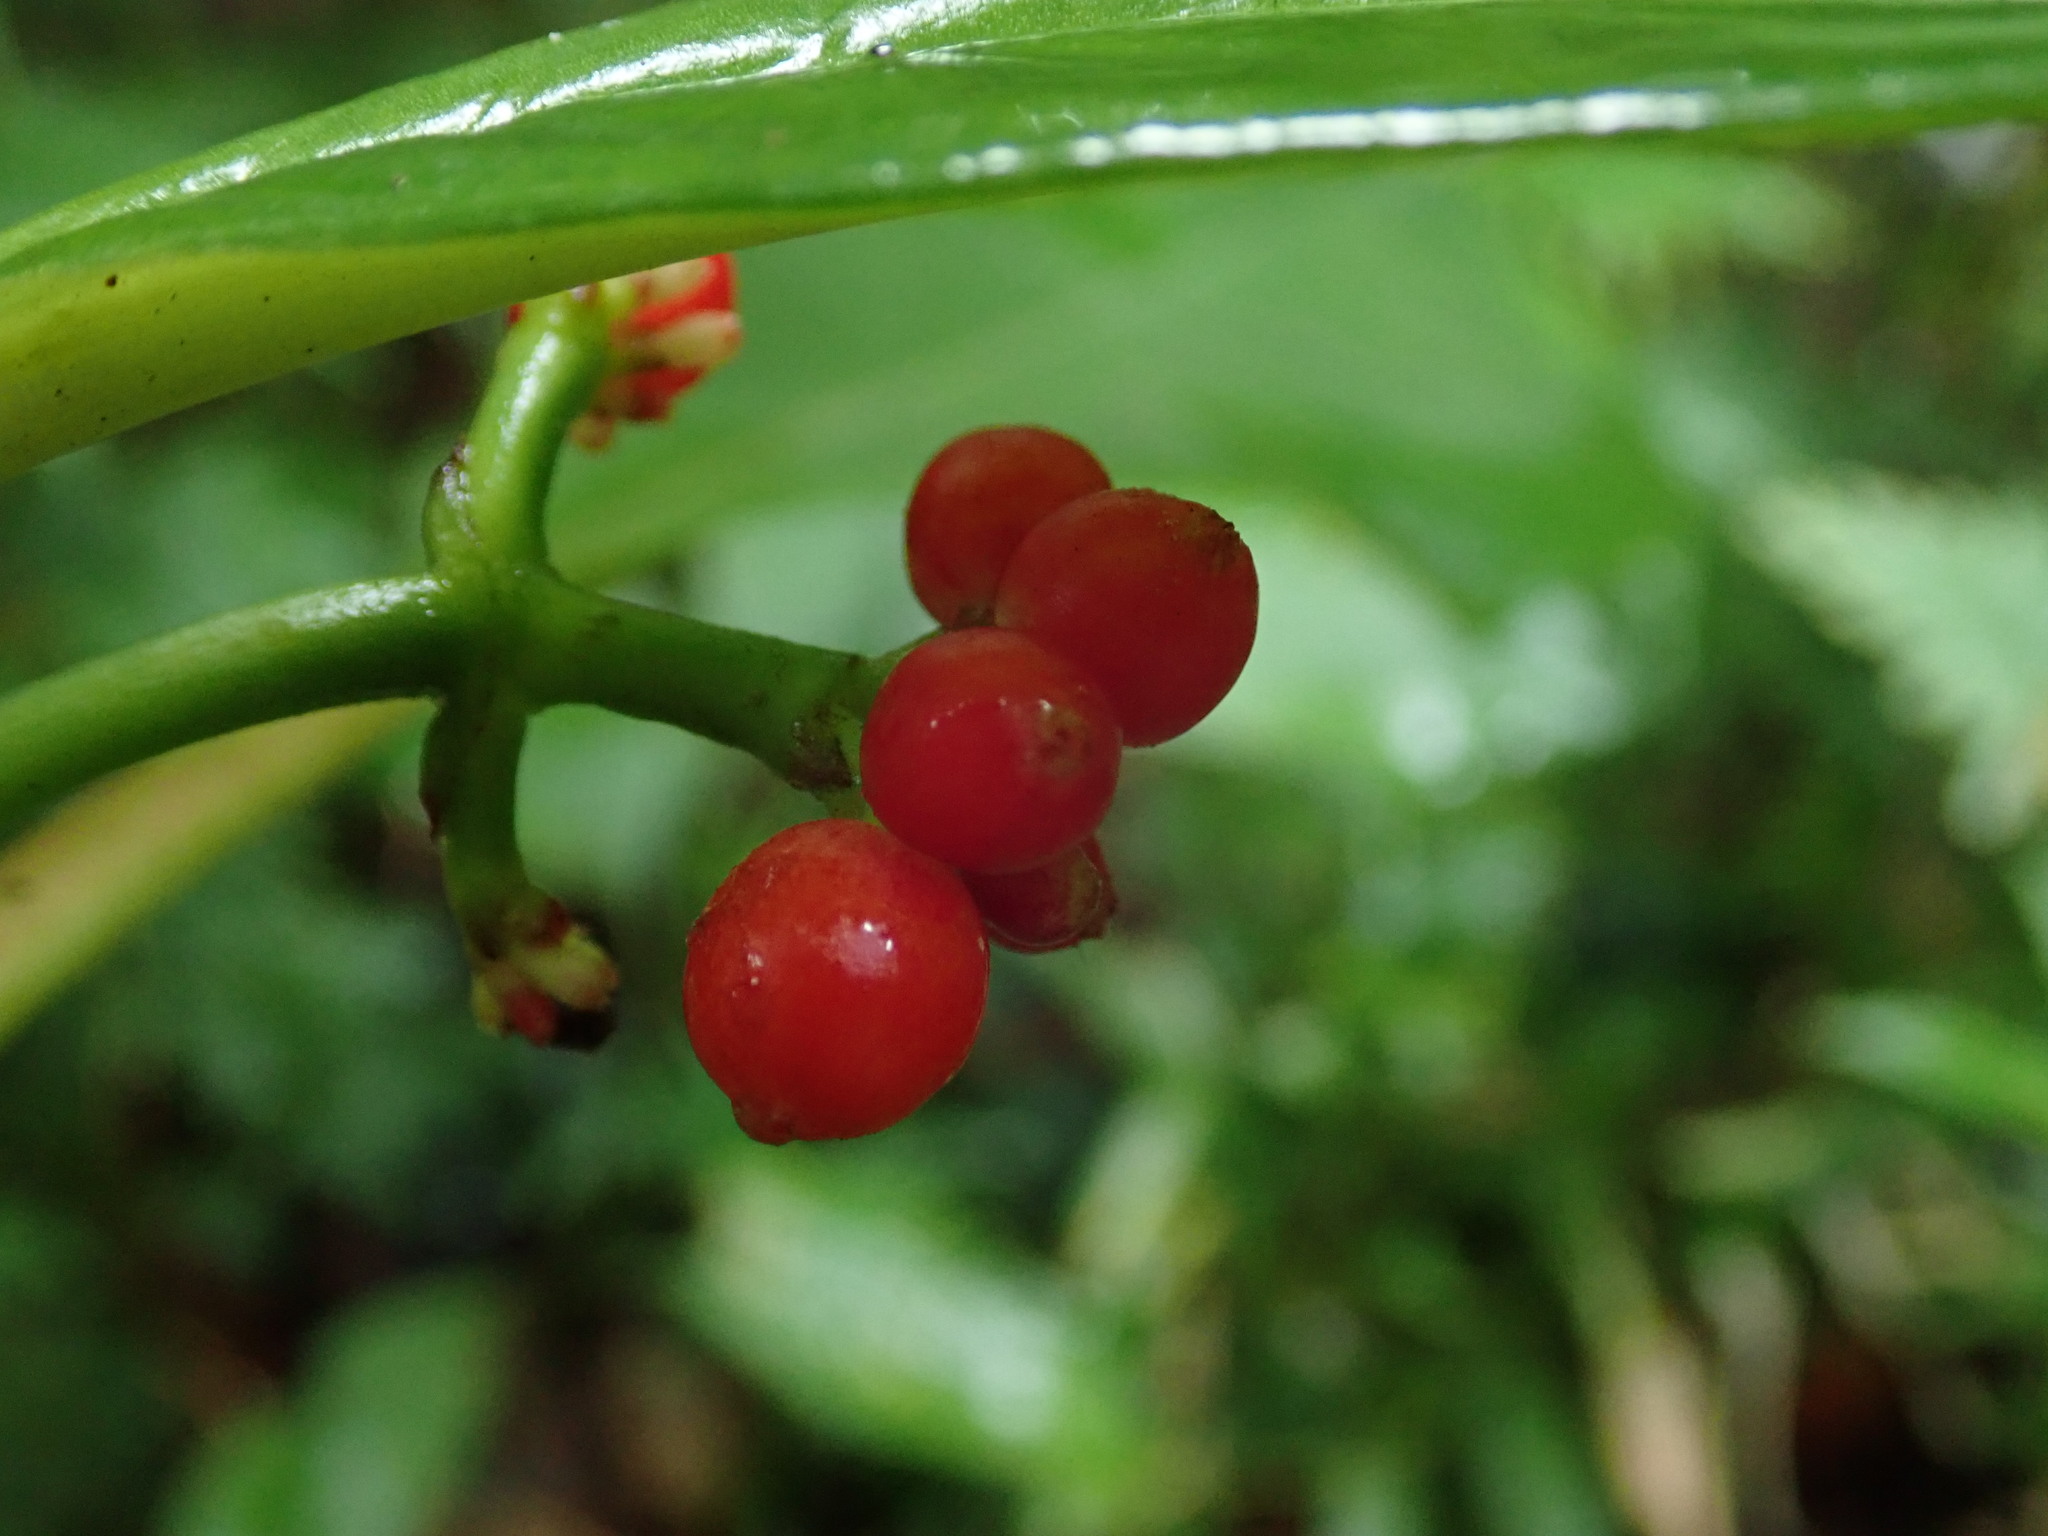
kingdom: Plantae
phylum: Tracheophyta
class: Magnoliopsida
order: Gentianales
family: Rubiaceae
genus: Notopleura
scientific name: Notopleura uliginosa
